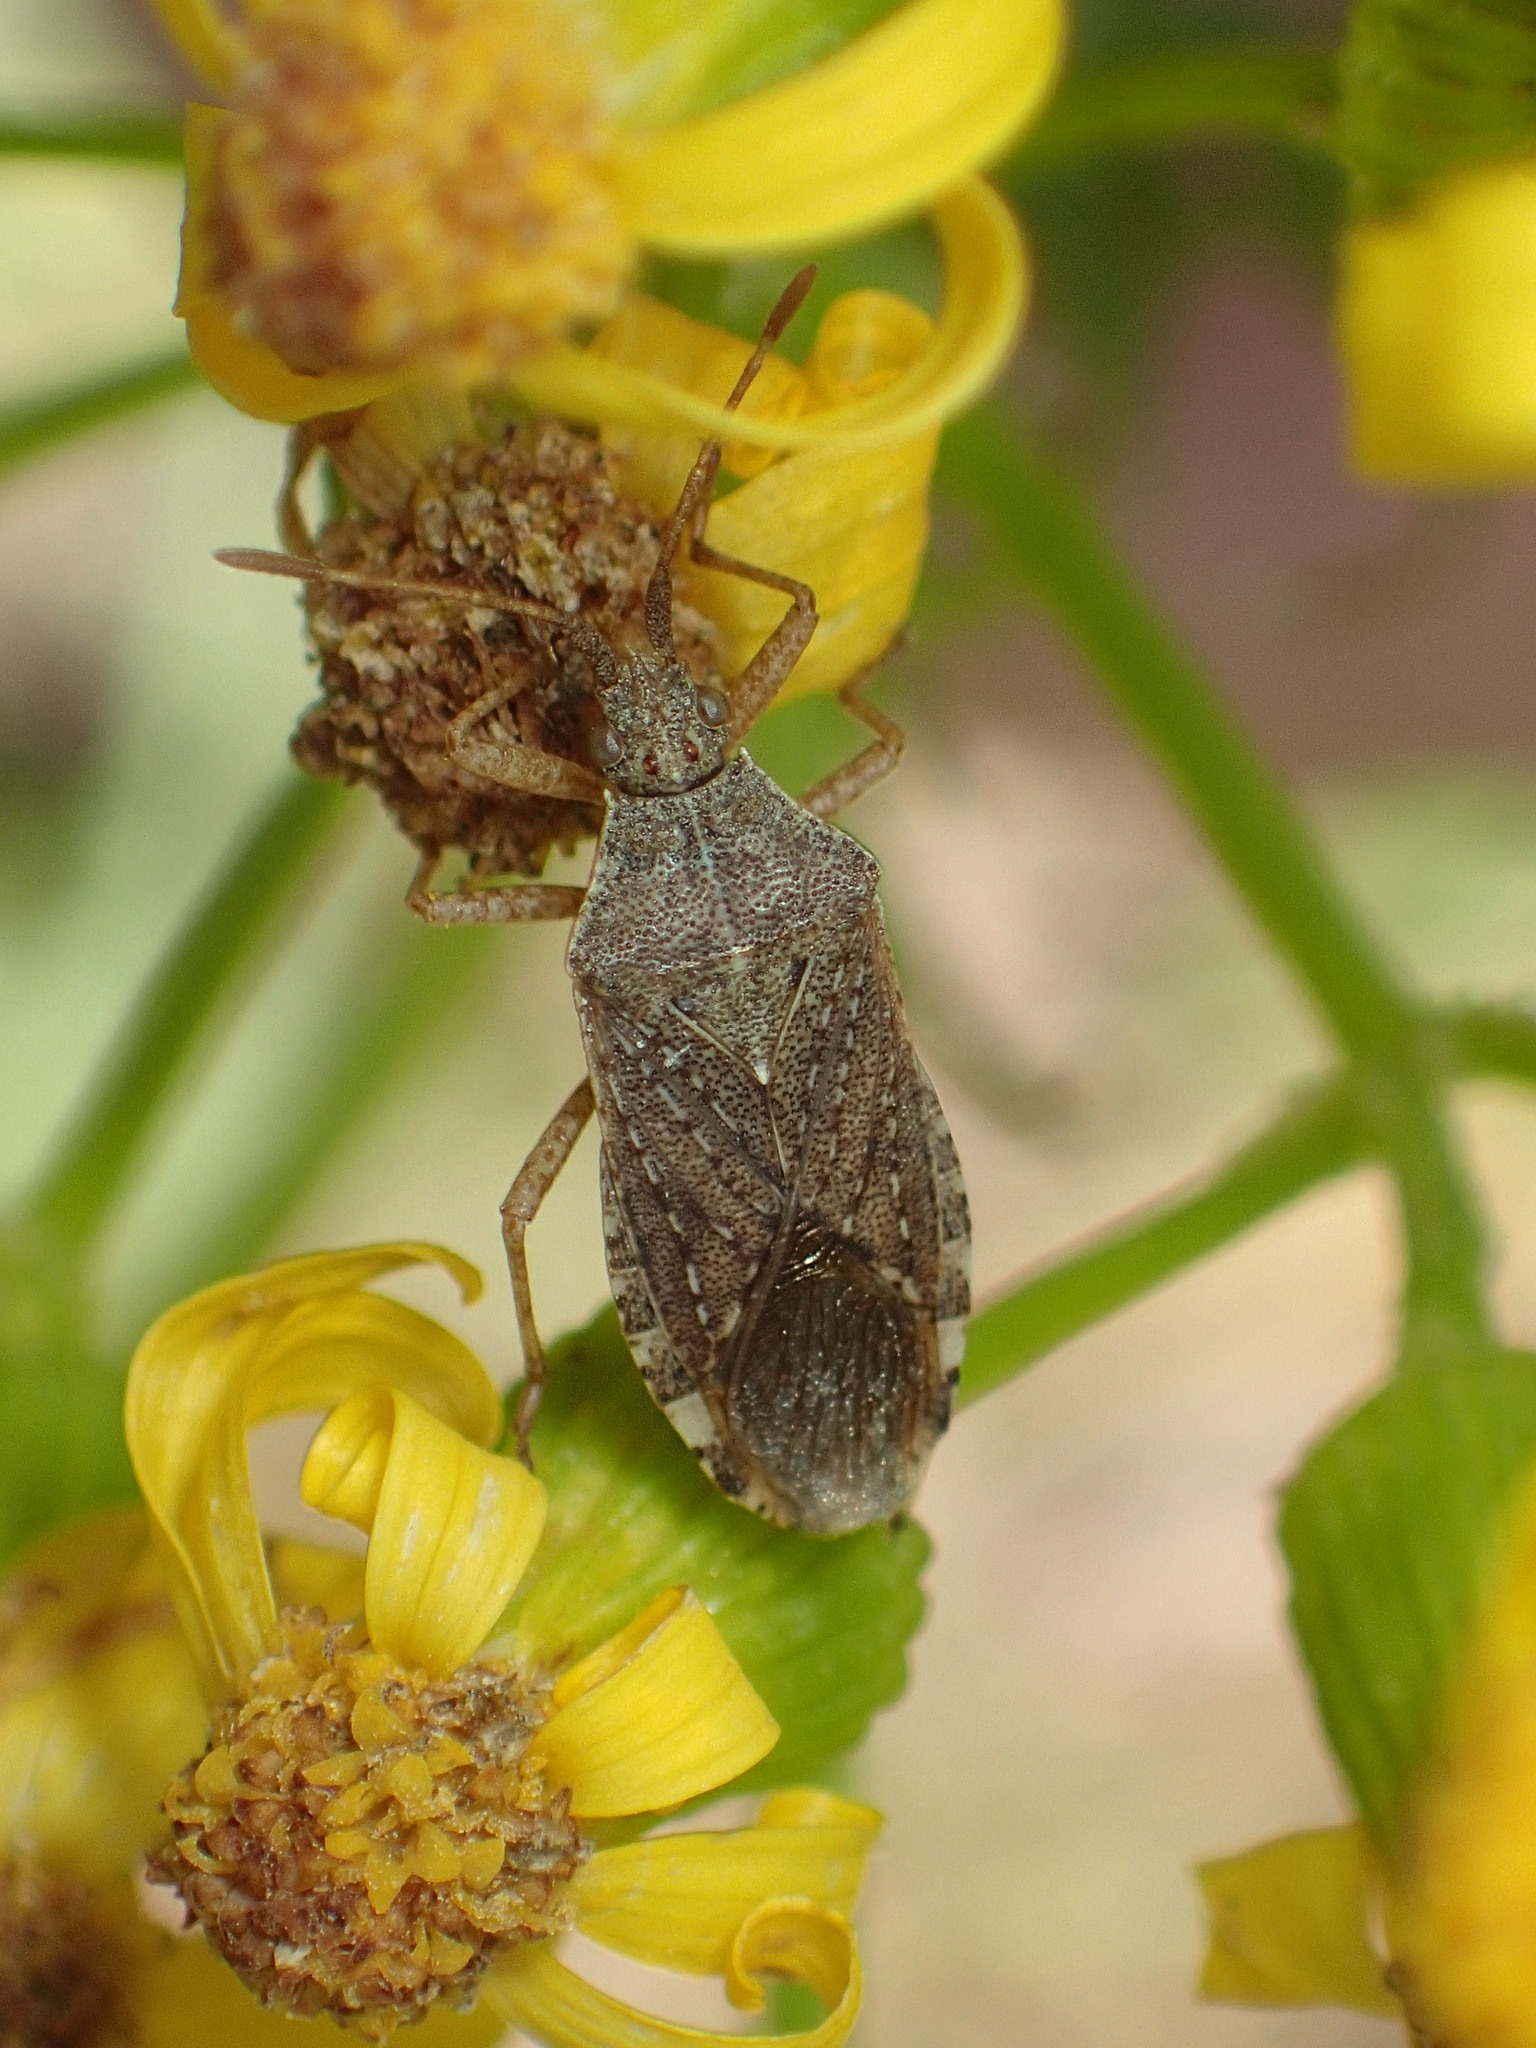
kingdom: Animalia
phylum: Arthropoda
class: Insecta
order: Hemiptera
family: Coreidae
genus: Althos
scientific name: Althos obscurator
